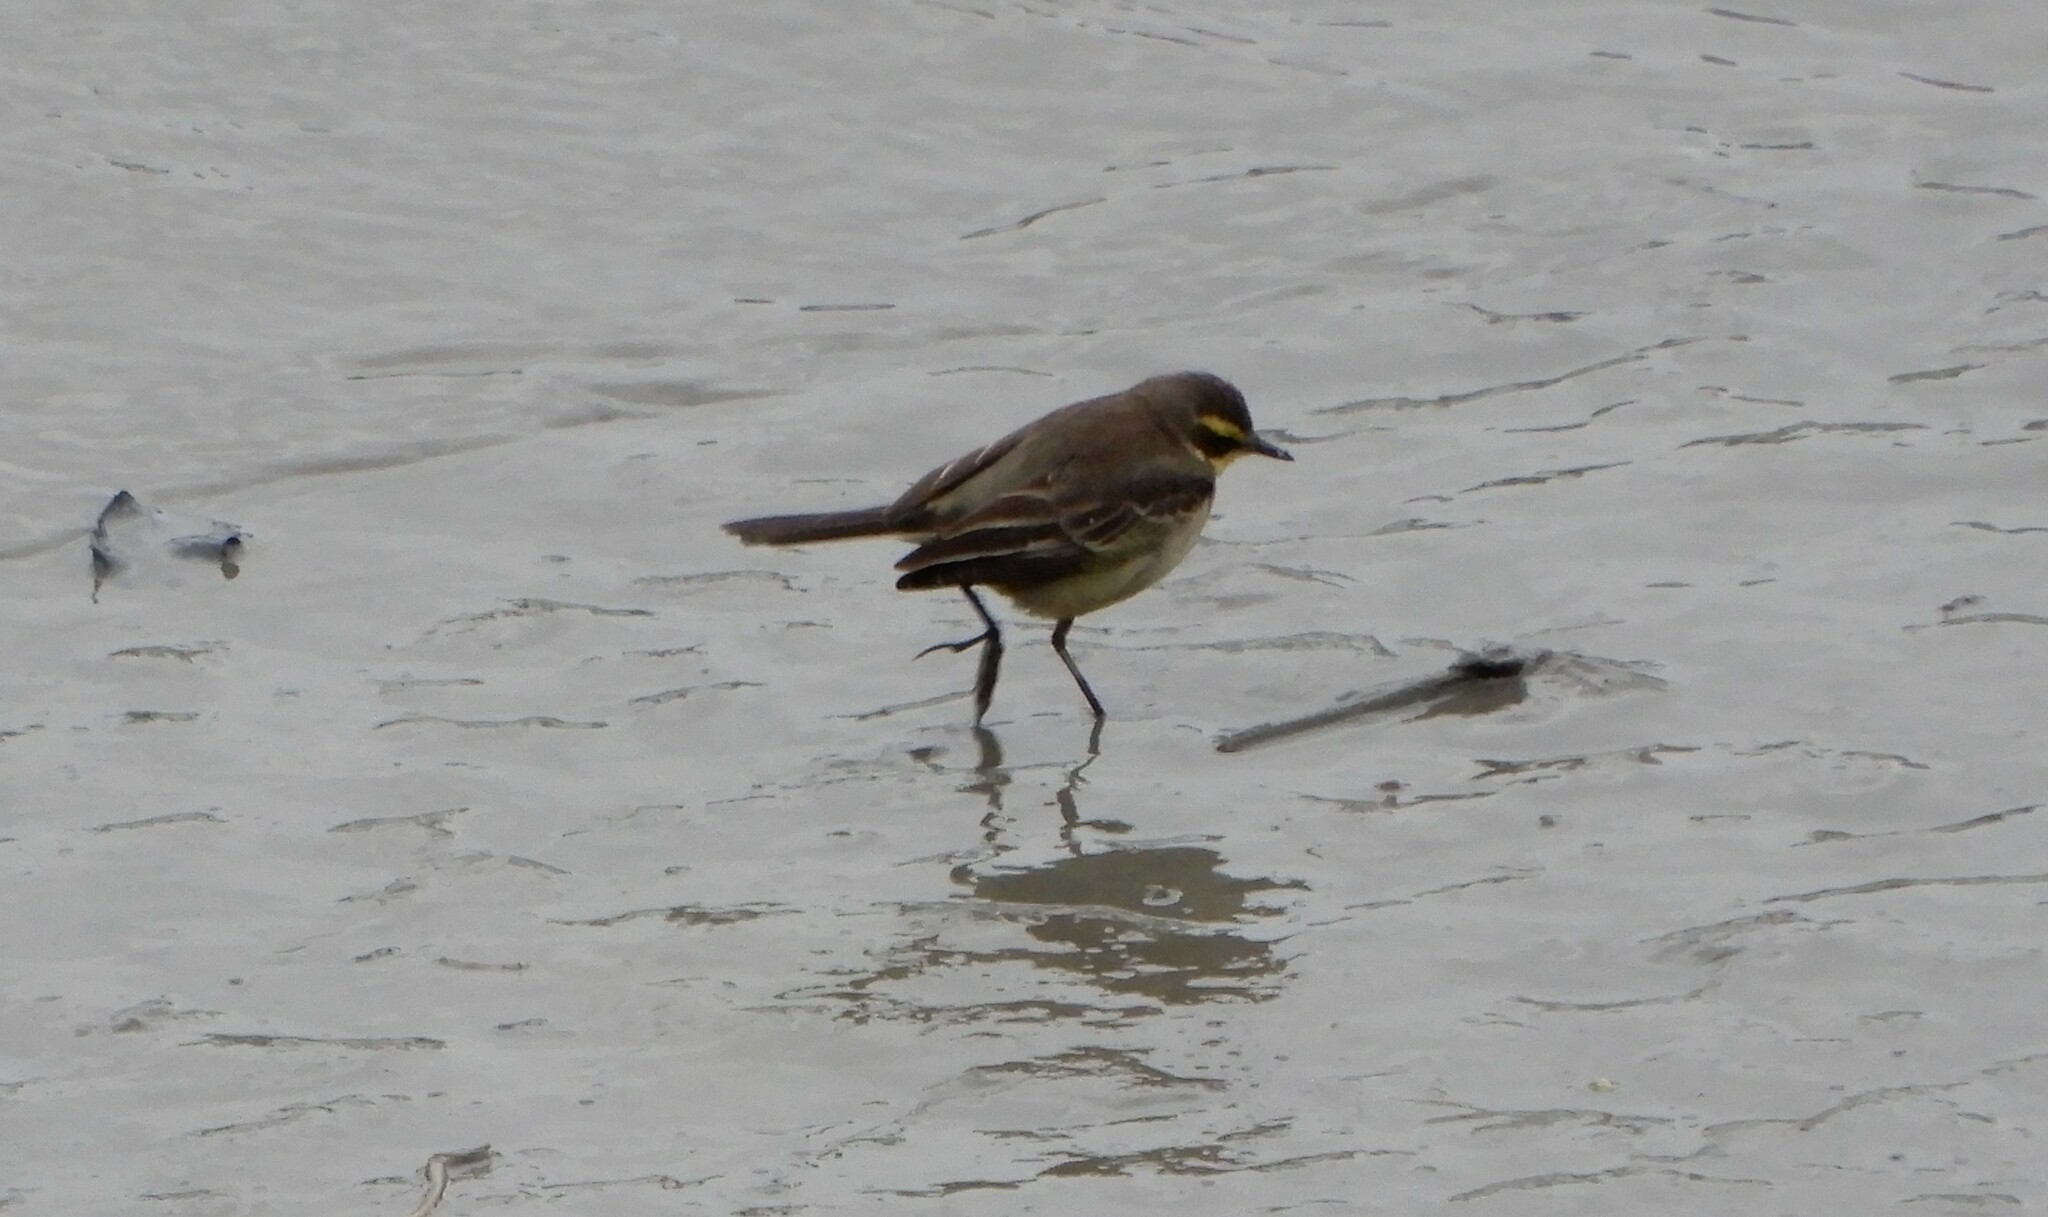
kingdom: Animalia
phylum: Chordata
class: Aves
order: Passeriformes
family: Motacillidae
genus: Motacilla
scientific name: Motacilla tschutschensis
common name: Eastern yellow wagtail
